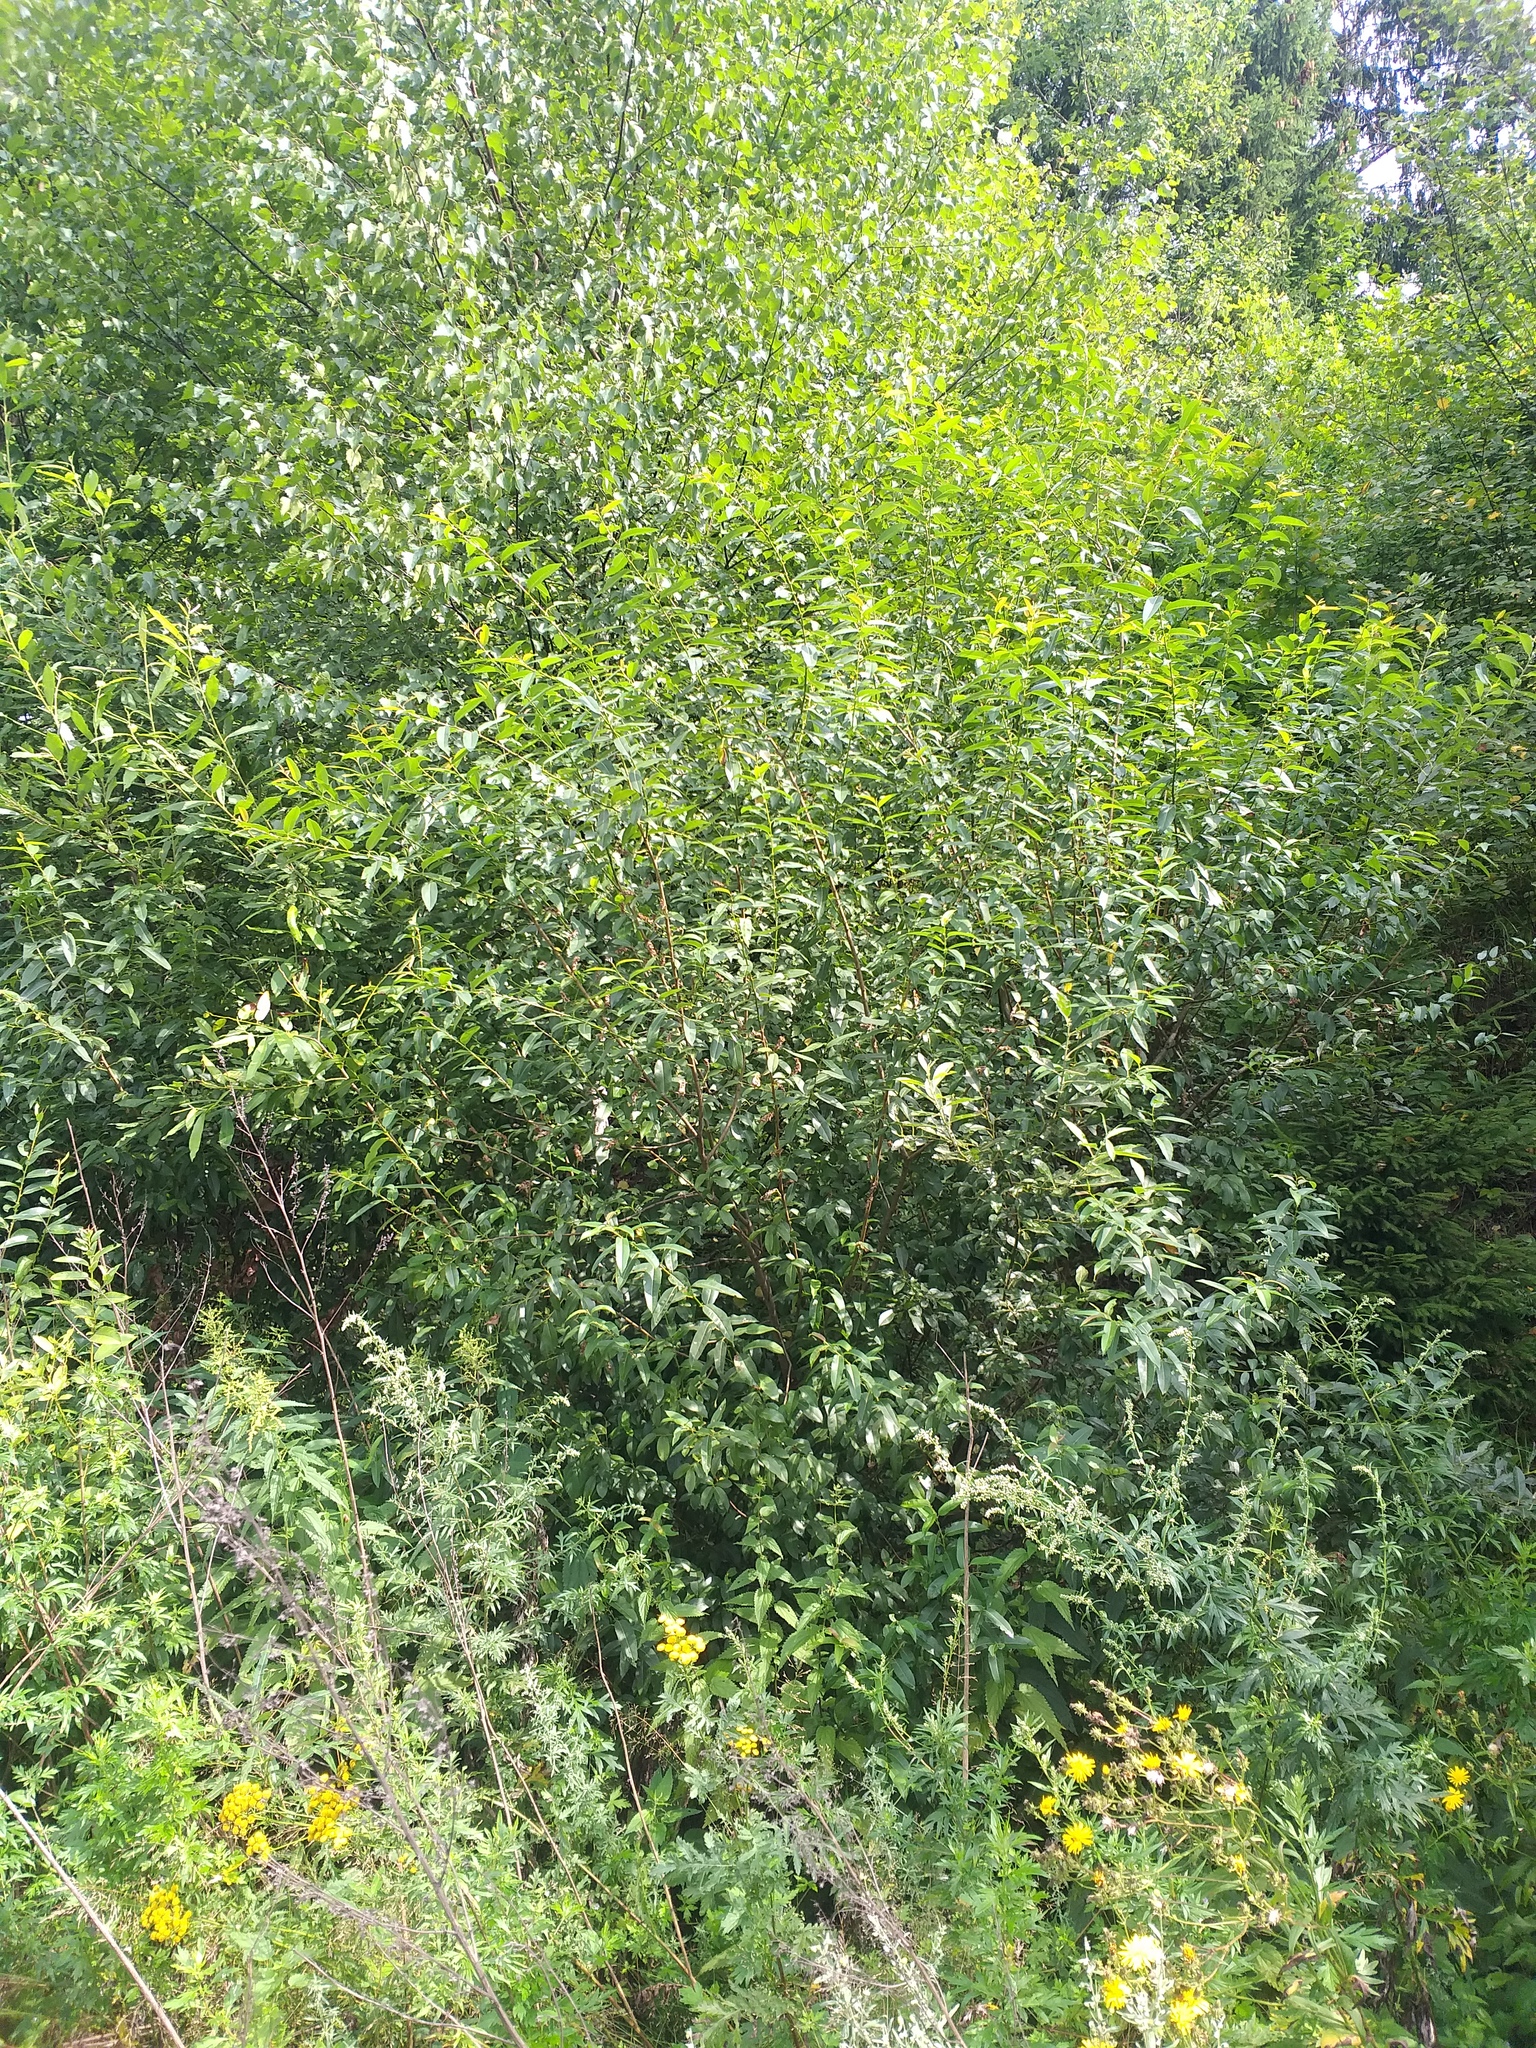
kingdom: Plantae
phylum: Tracheophyta
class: Magnoliopsida
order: Malpighiales
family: Salicaceae
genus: Salix
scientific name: Salix triandra
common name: Almond willow
